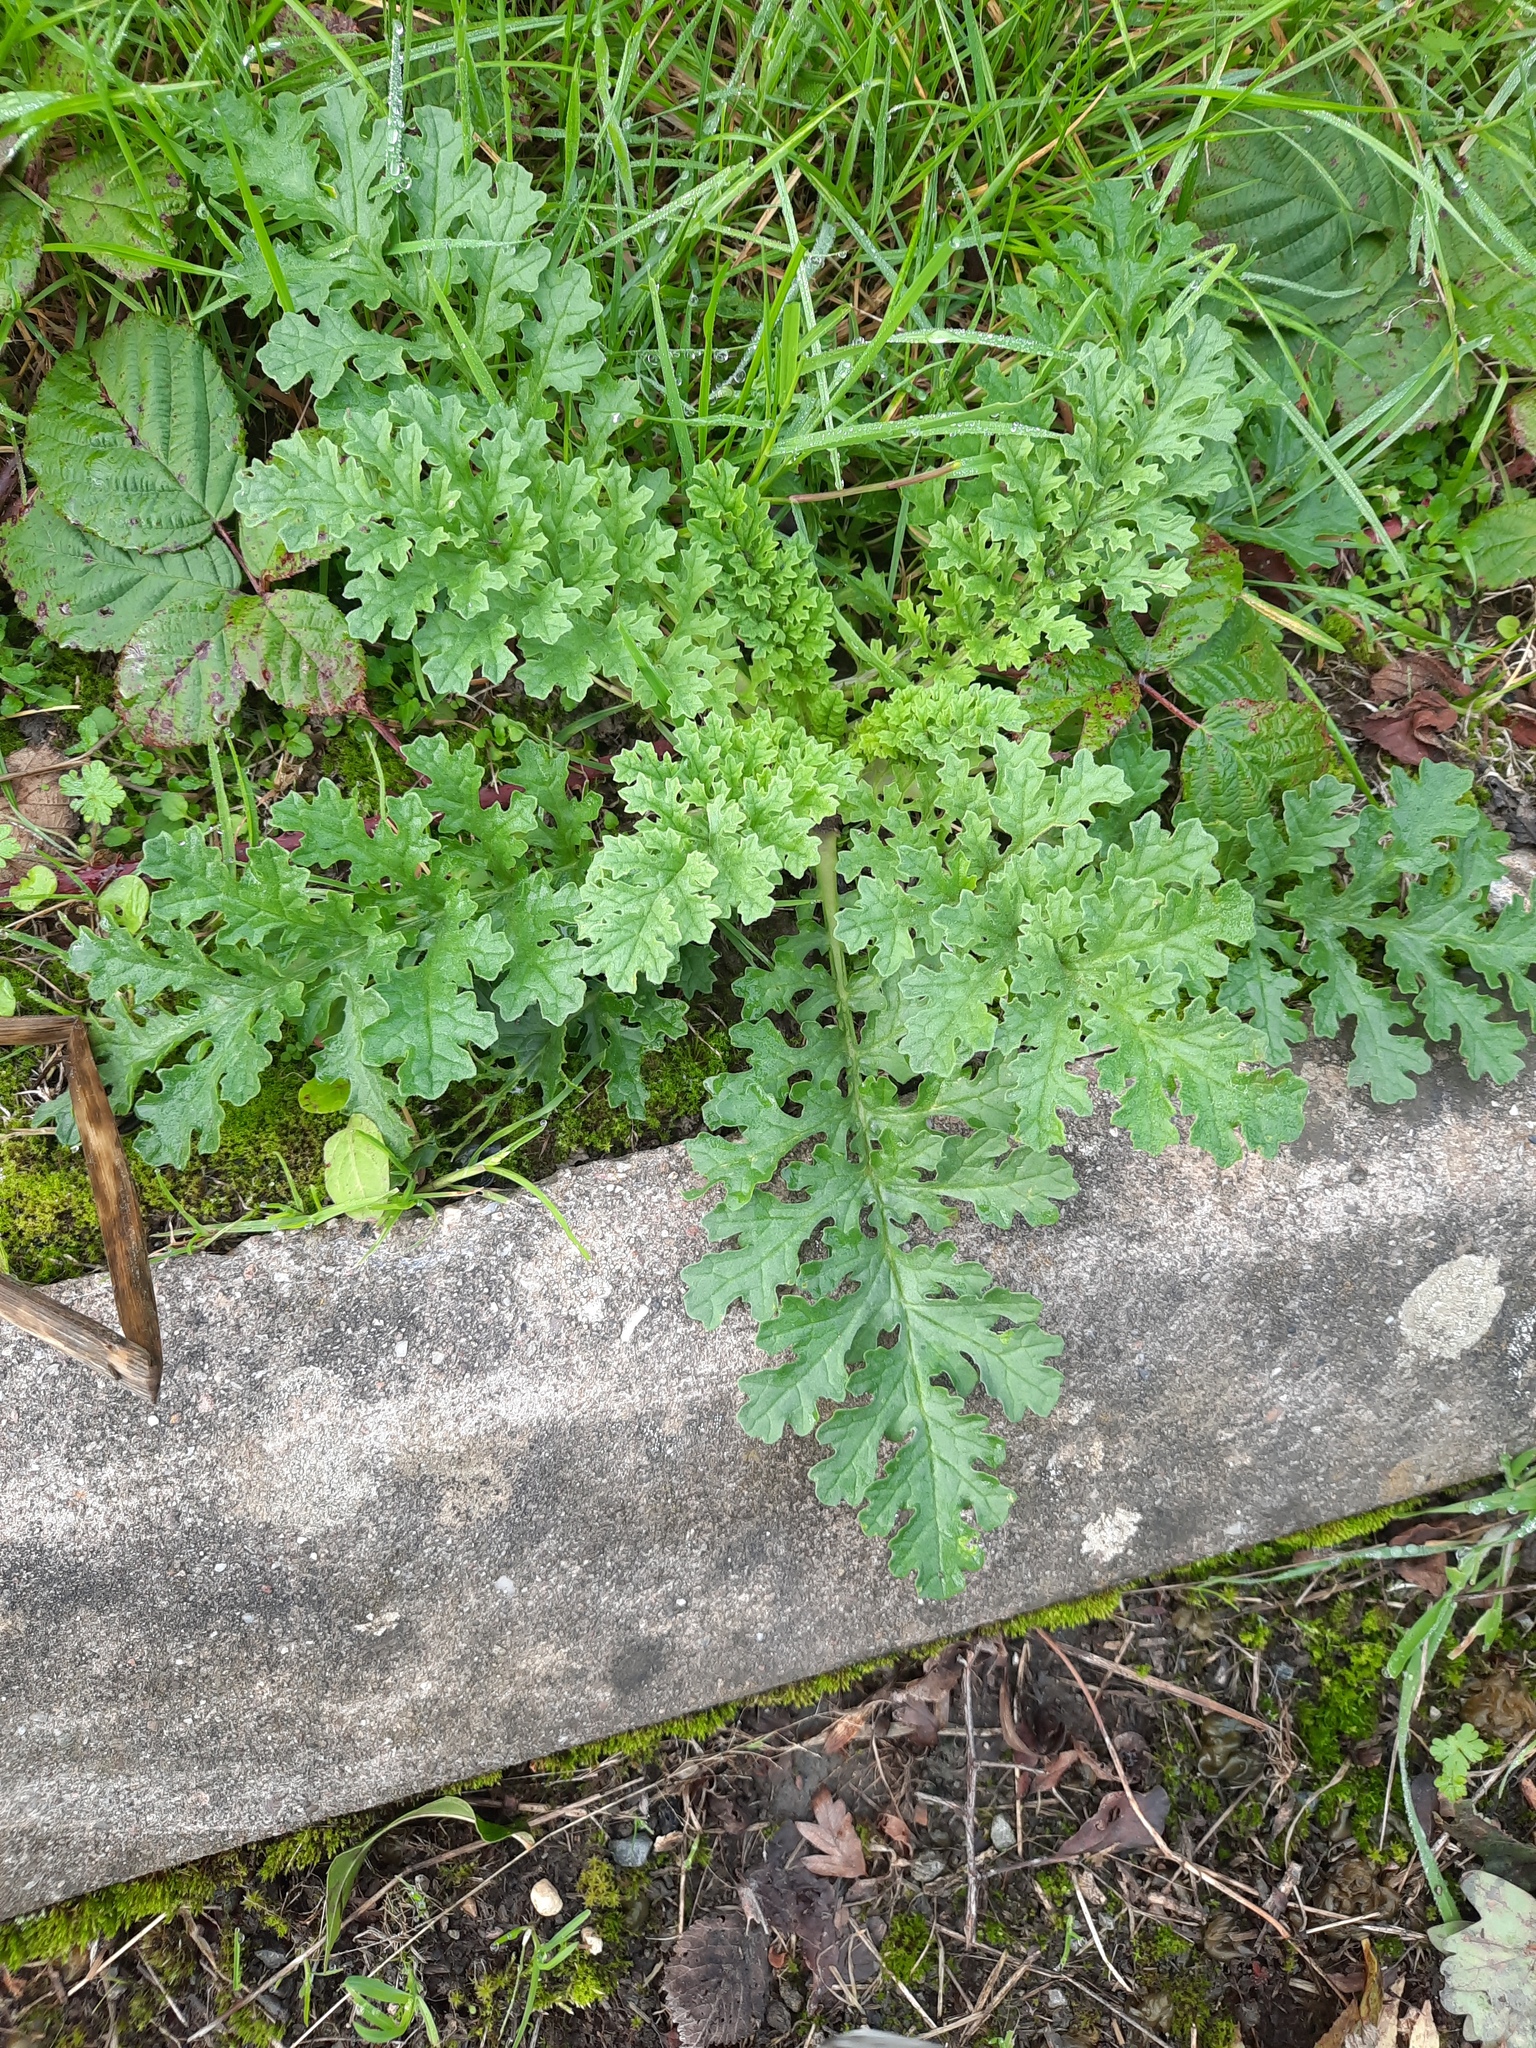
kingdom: Plantae
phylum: Tracheophyta
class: Magnoliopsida
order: Asterales
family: Asteraceae
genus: Jacobaea
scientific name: Jacobaea vulgaris
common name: Stinking willie
